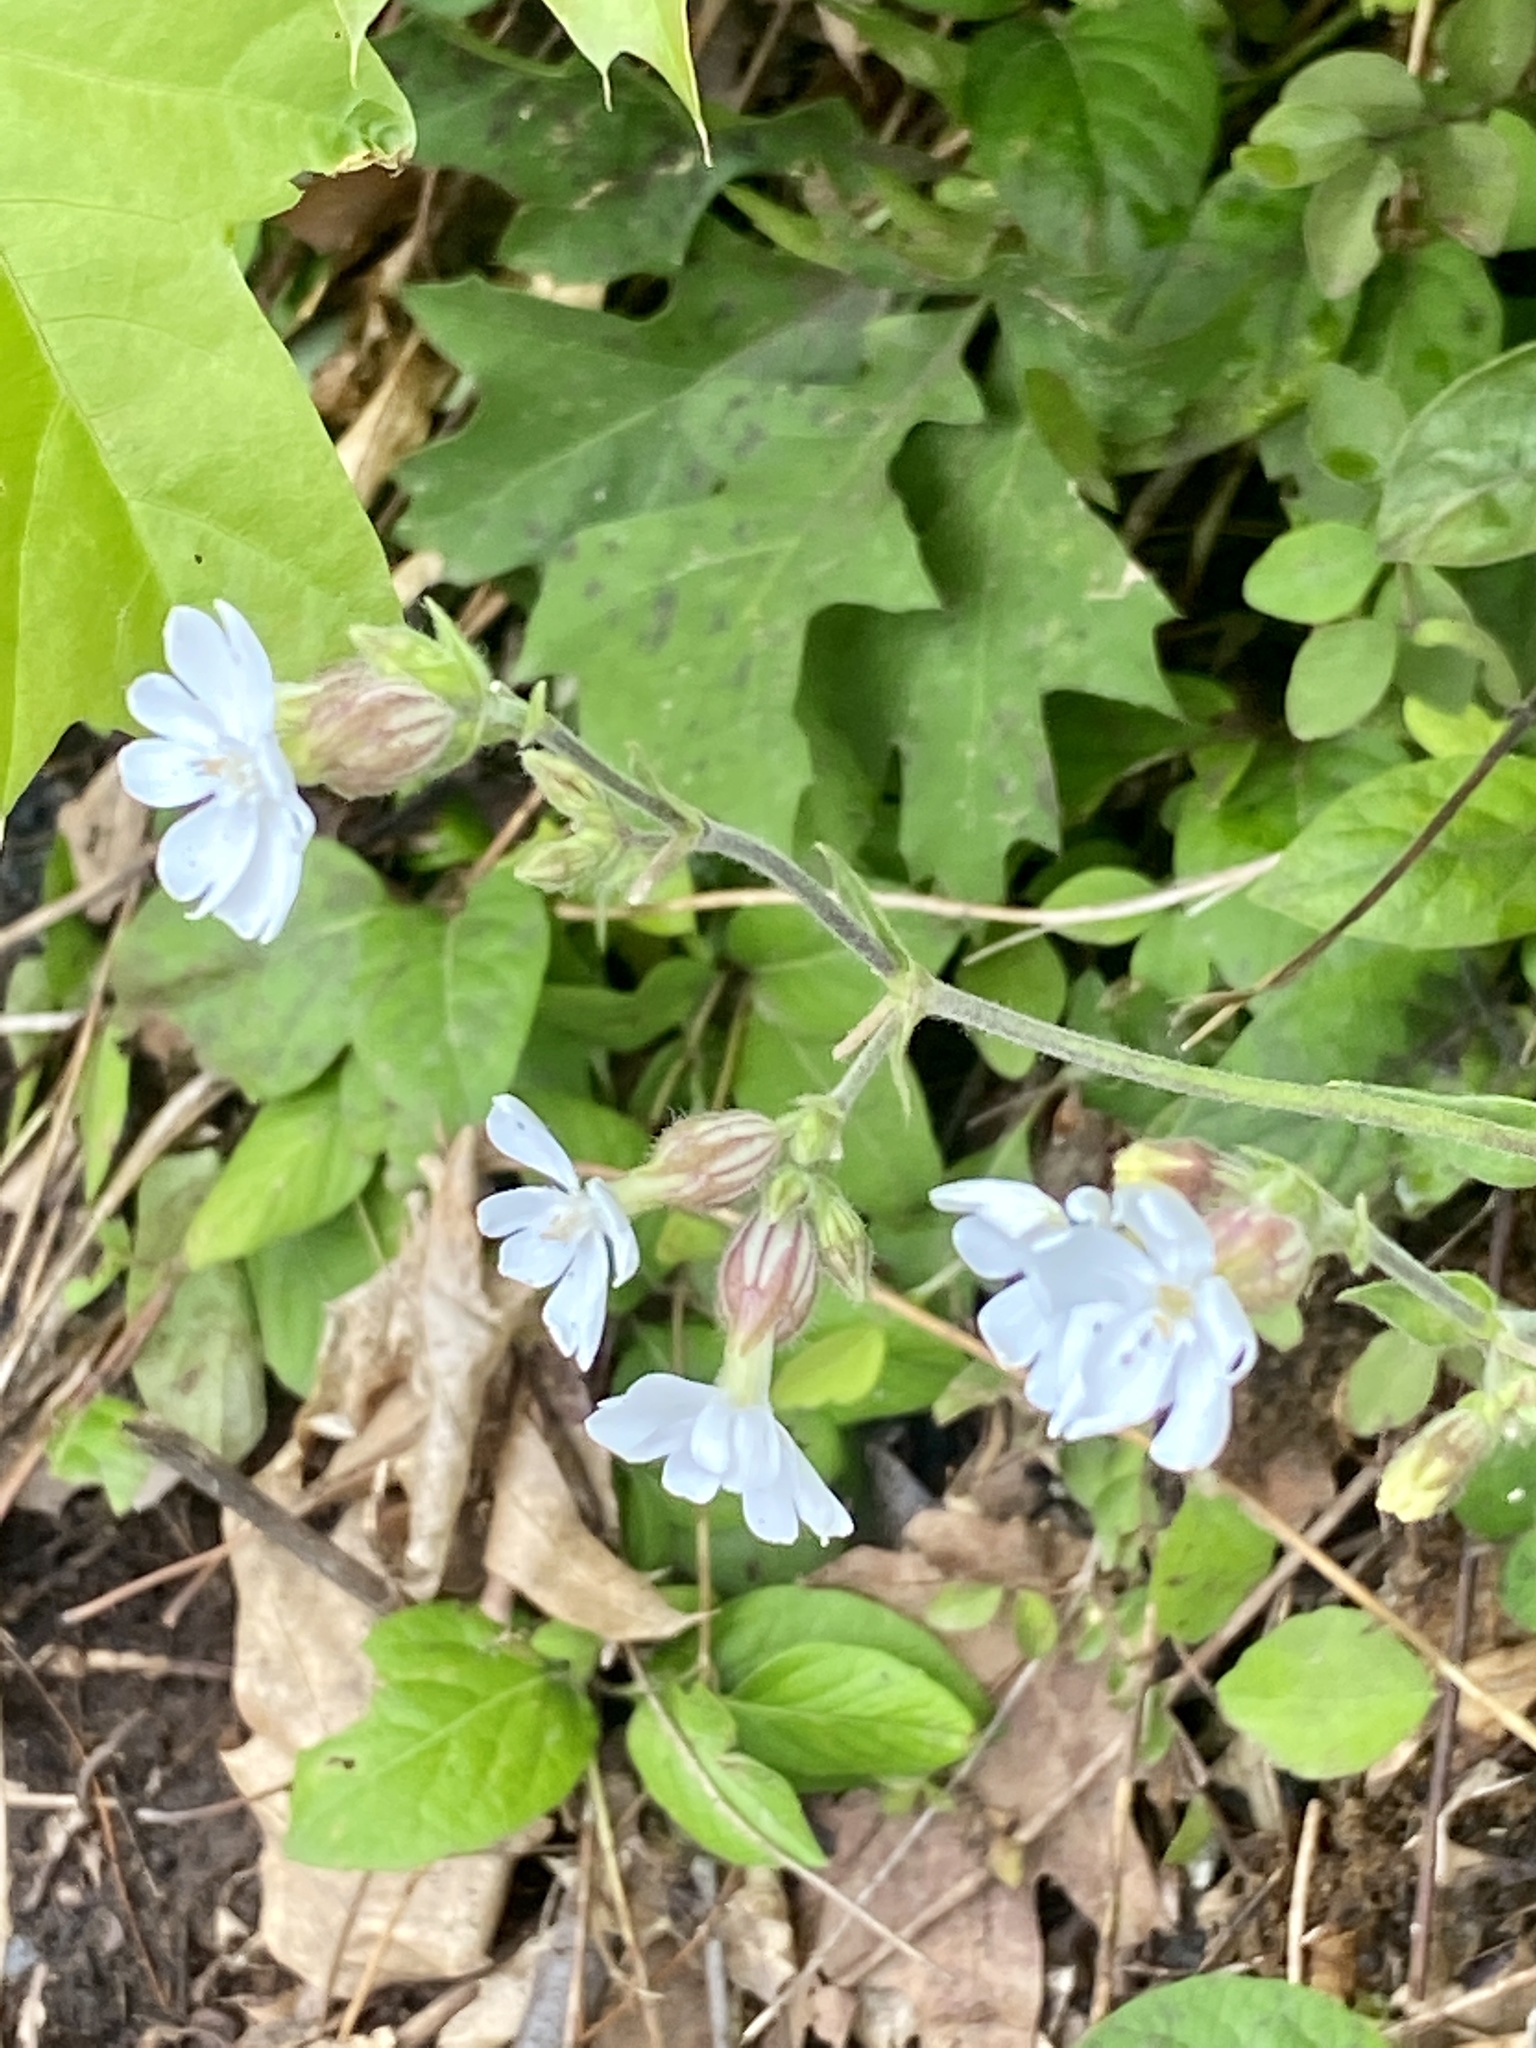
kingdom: Plantae
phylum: Tracheophyta
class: Magnoliopsida
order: Caryophyllales
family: Caryophyllaceae
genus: Silene
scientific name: Silene latifolia
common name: White campion
